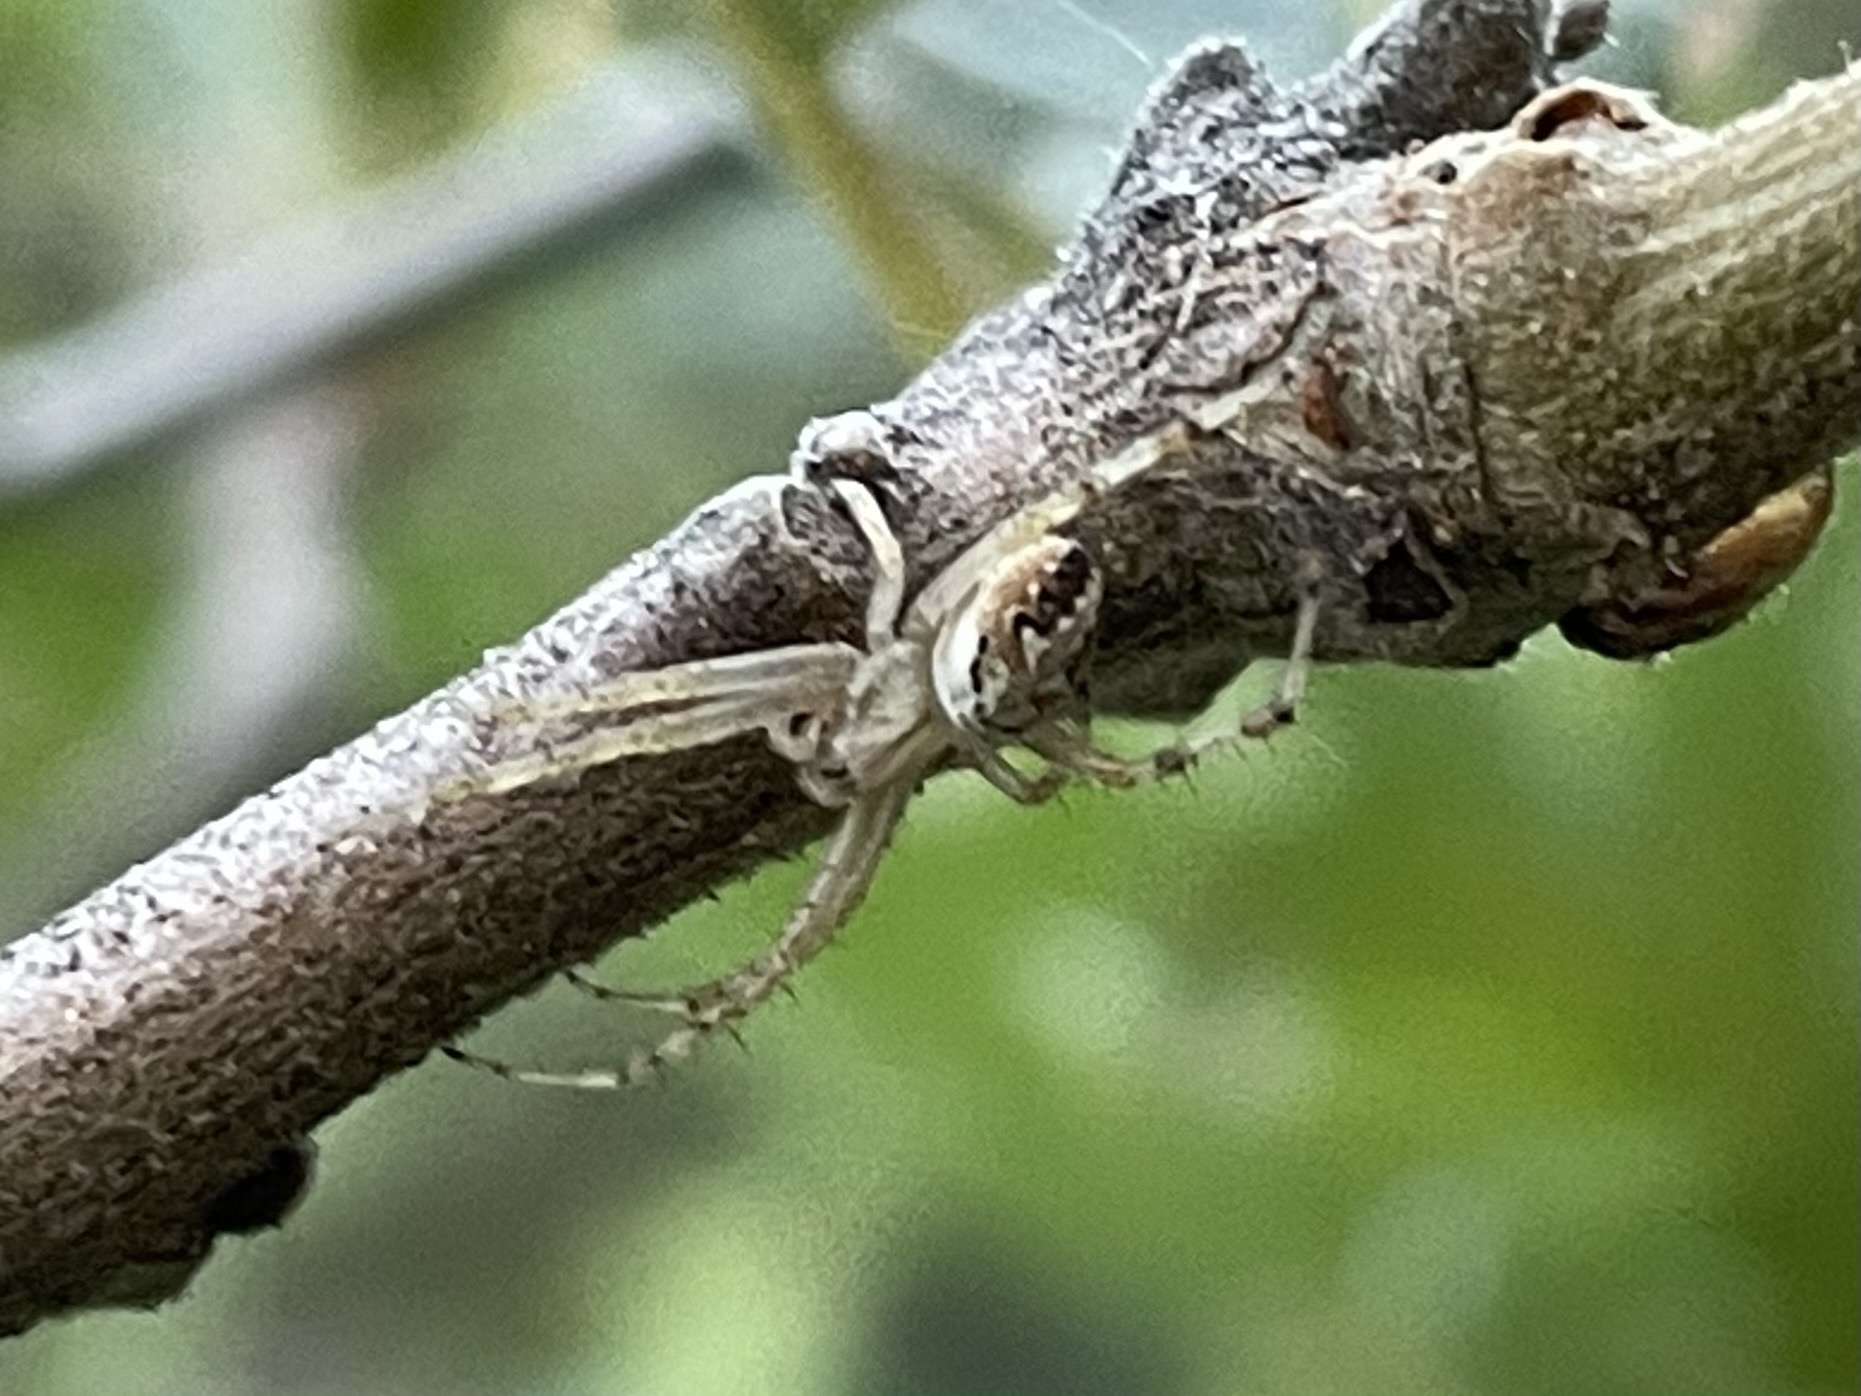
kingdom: Animalia
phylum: Arthropoda
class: Arachnida
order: Araneae
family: Araneidae
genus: Neoscona
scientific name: Neoscona oaxacensis
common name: Orb weavers
